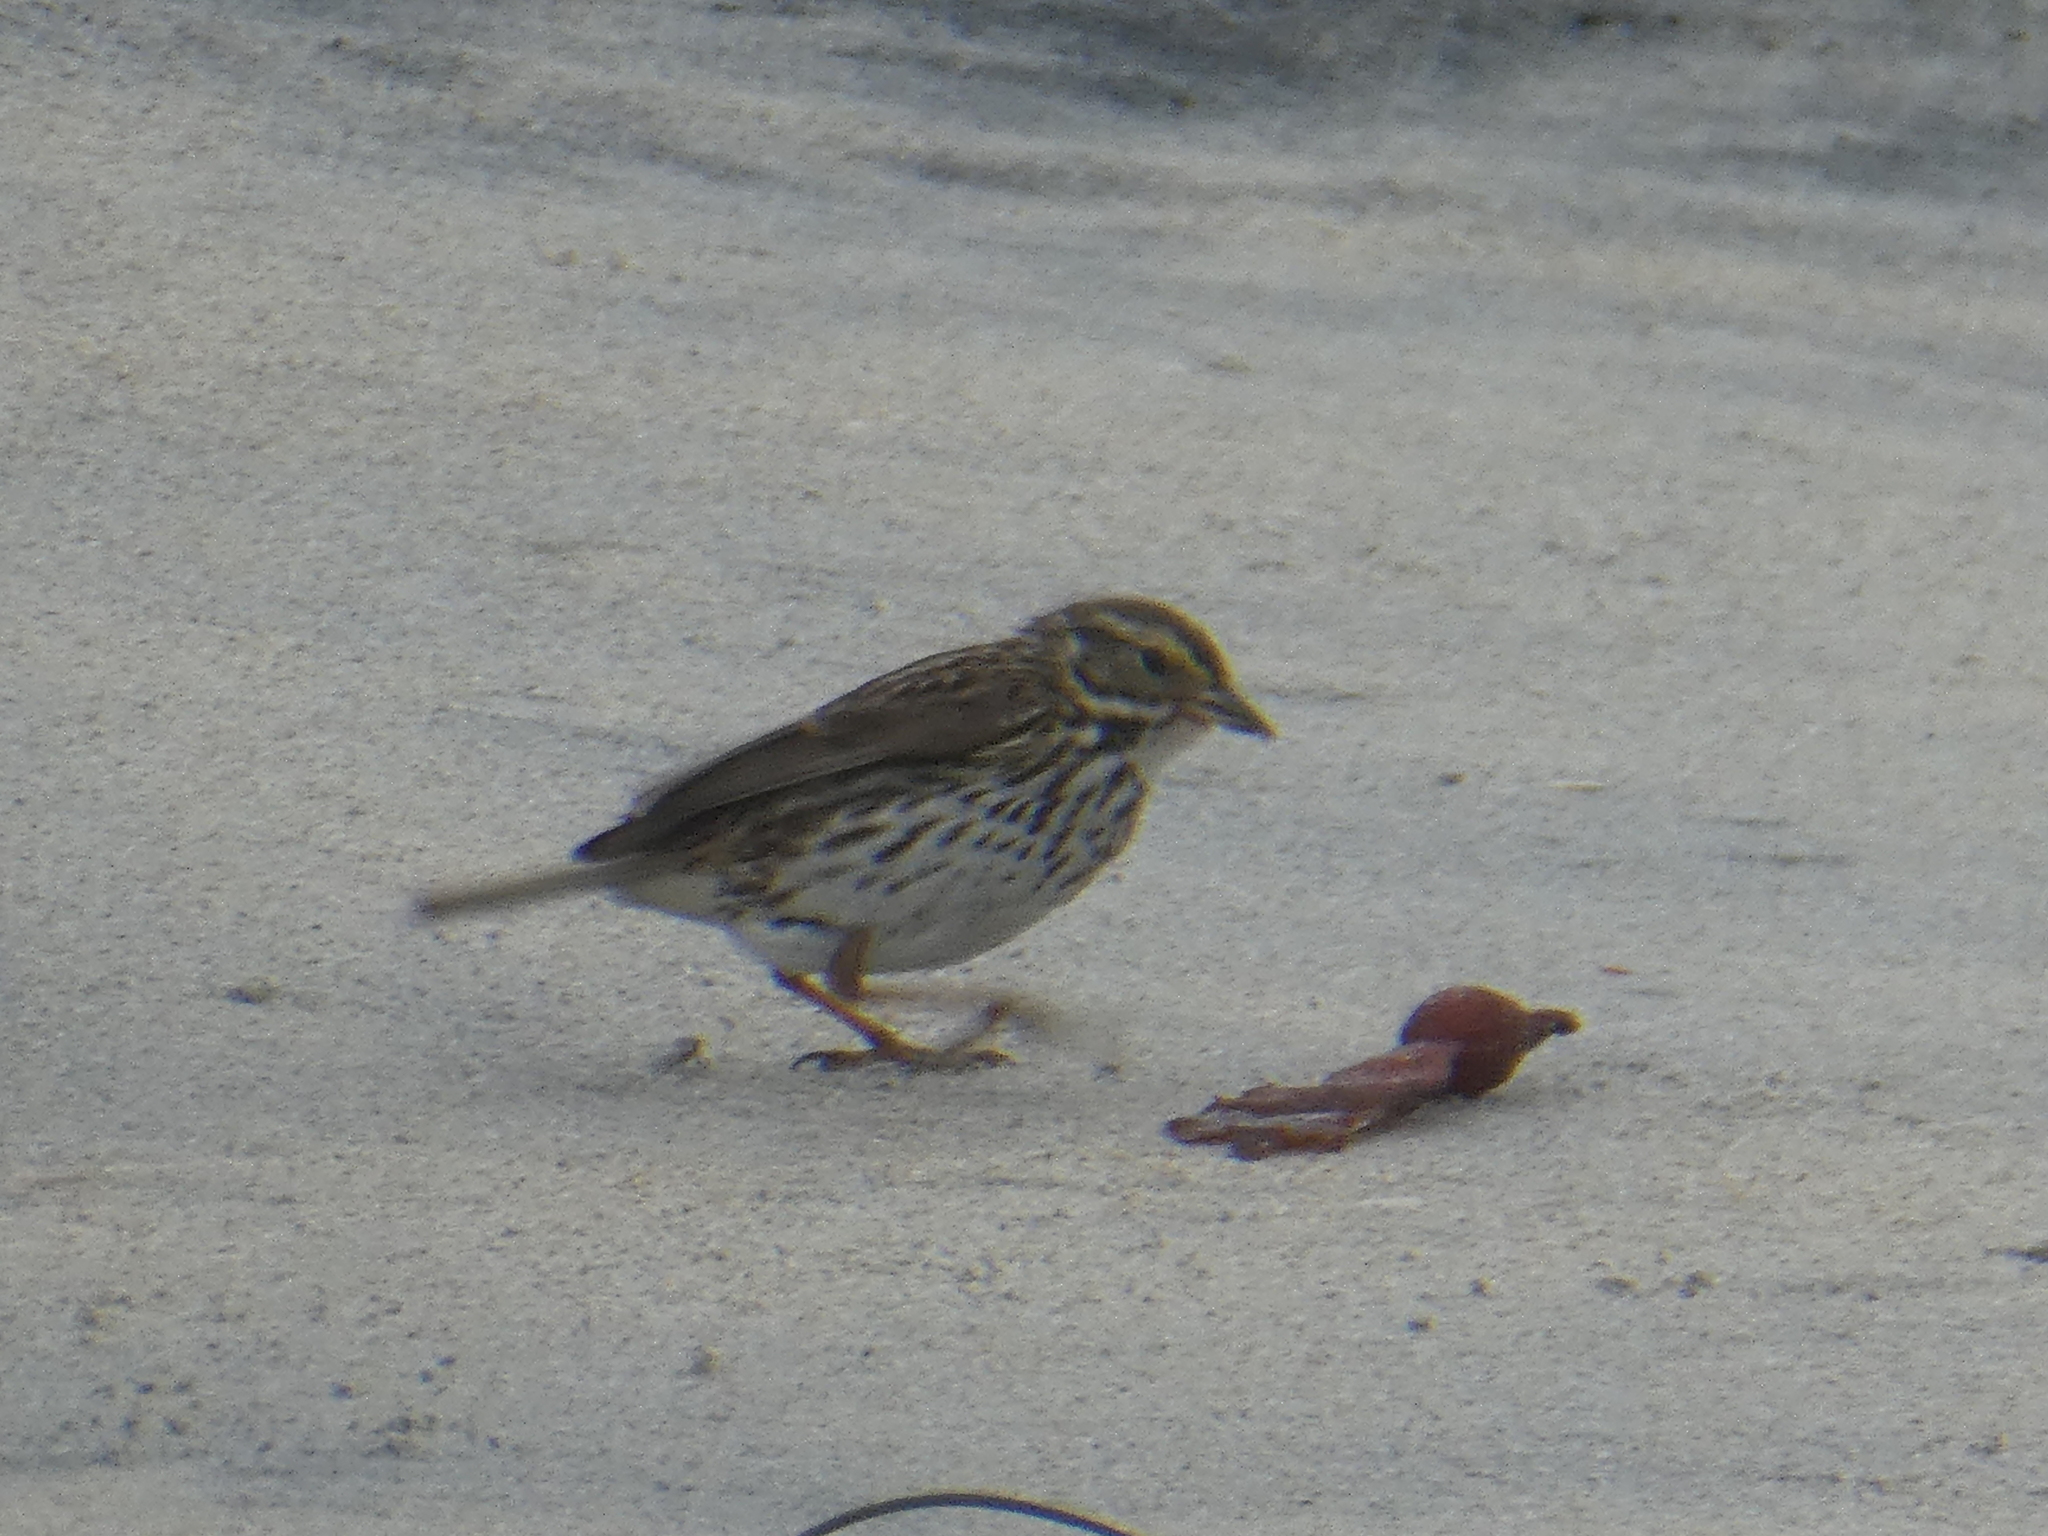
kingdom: Animalia
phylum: Chordata
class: Aves
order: Passeriformes
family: Passerellidae
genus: Passerculus
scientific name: Passerculus sandwichensis
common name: Savannah sparrow
